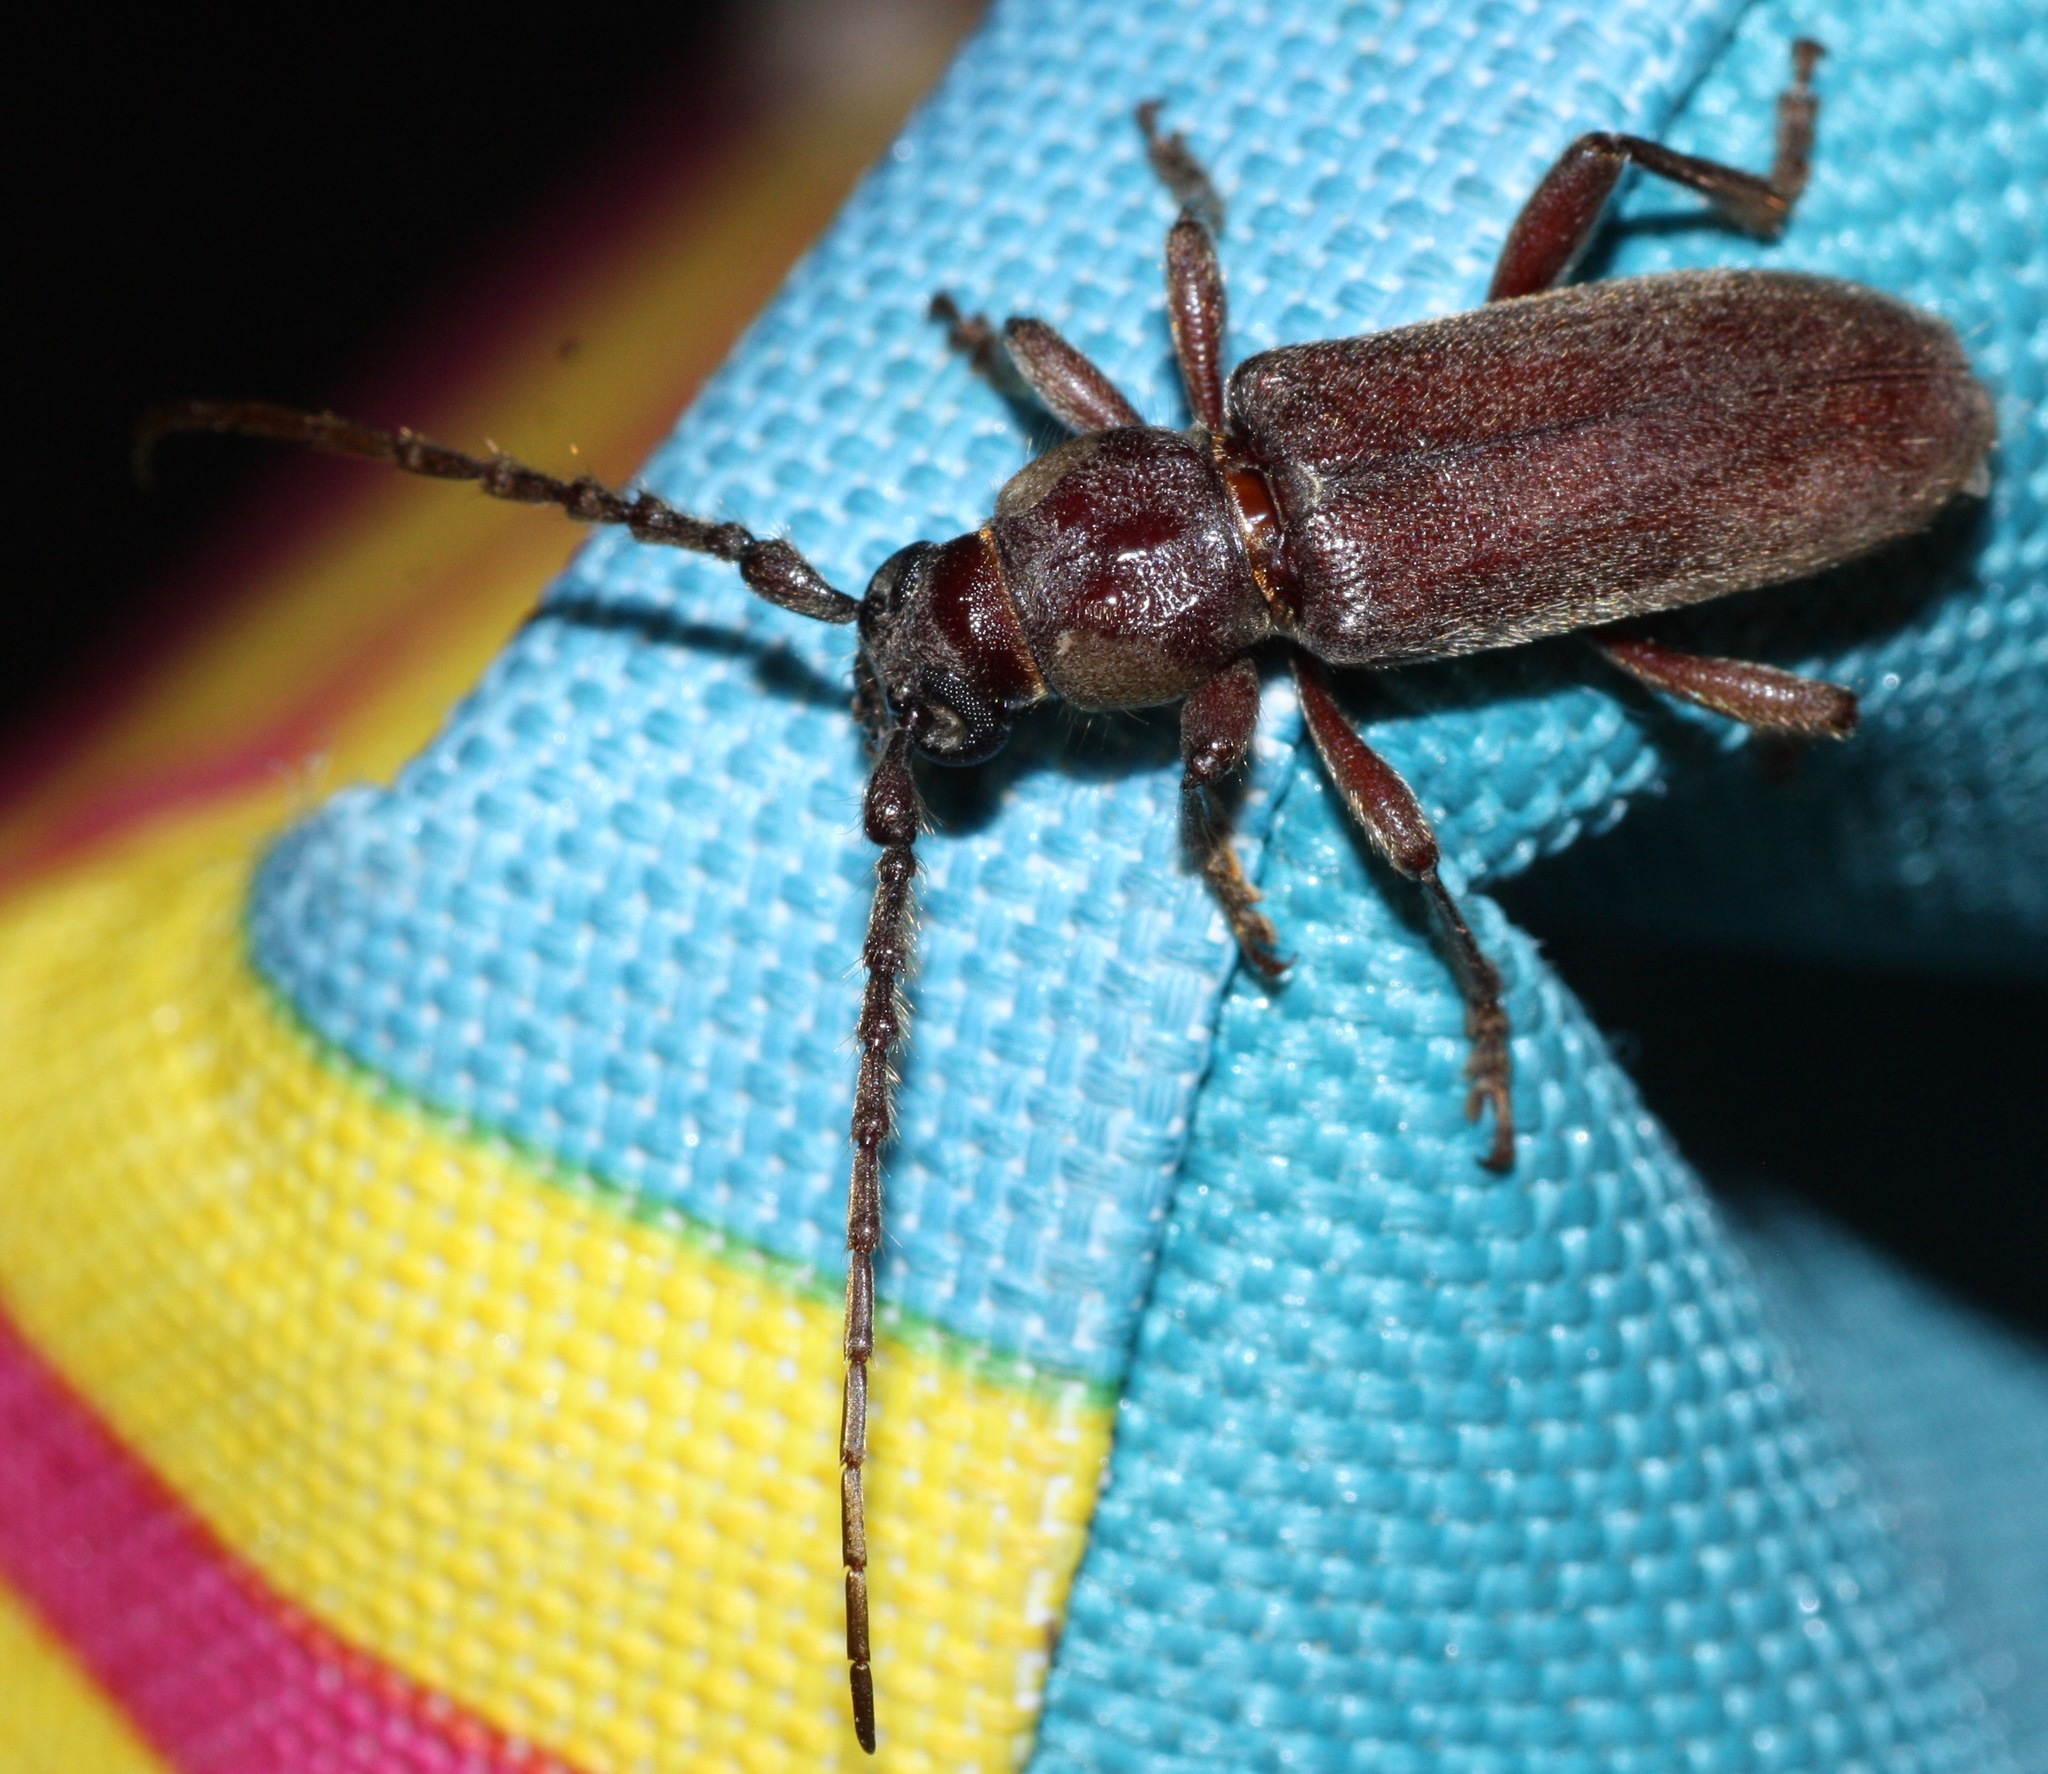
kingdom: Animalia
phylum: Arthropoda
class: Insecta
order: Coleoptera
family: Cerambycidae
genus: Eustromula
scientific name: Eustromula validum
